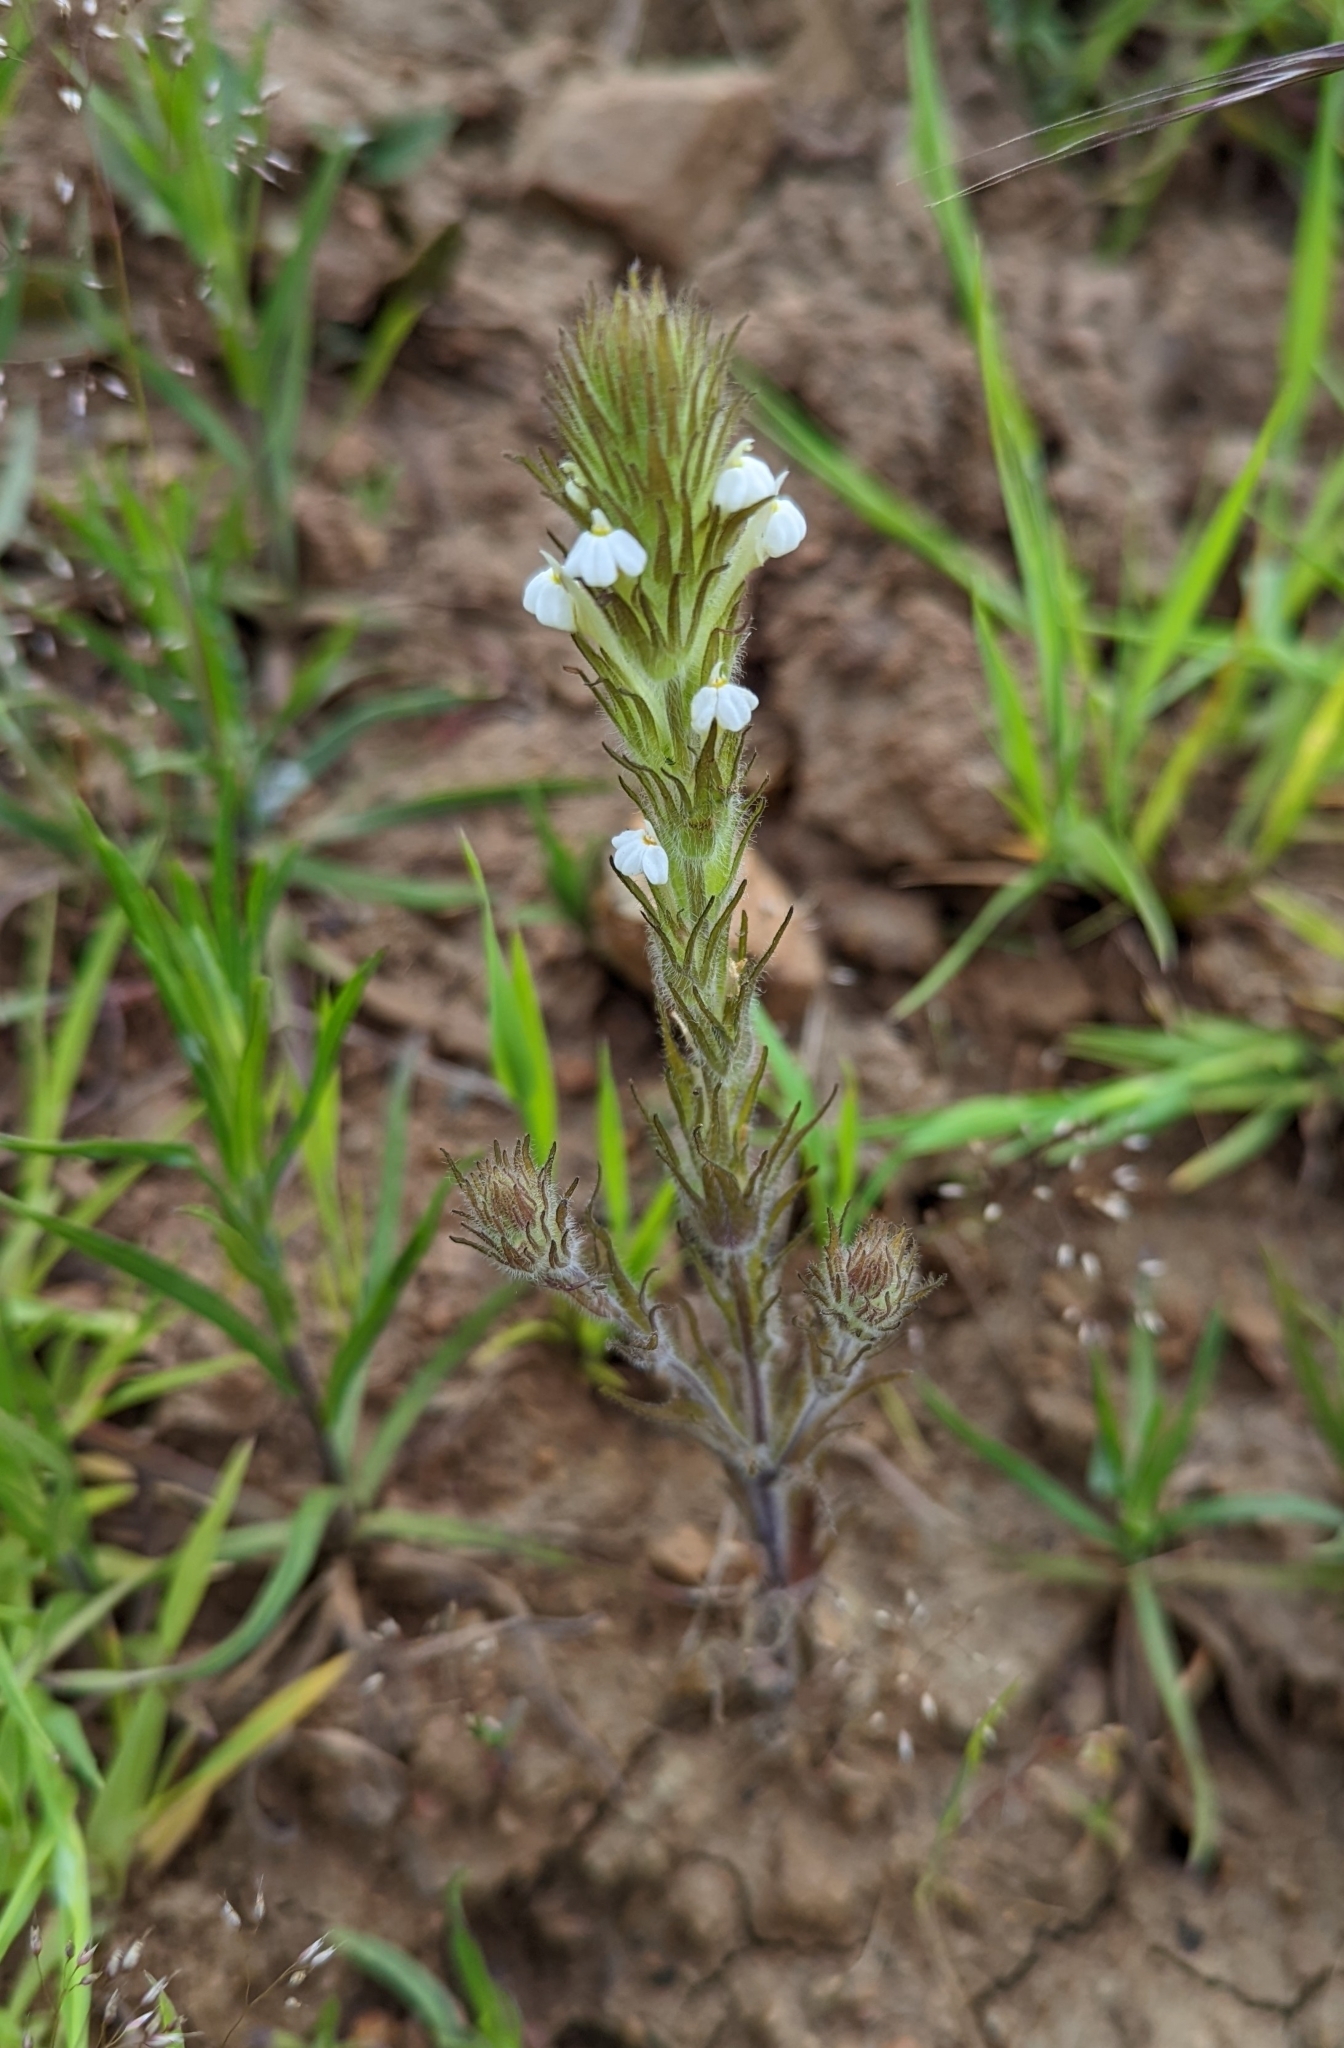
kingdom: Plantae
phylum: Tracheophyta
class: Magnoliopsida
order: Lamiales
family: Orobanchaceae
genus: Castilleja
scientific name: Castilleja tenuis
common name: Hairy indian paintbrush
